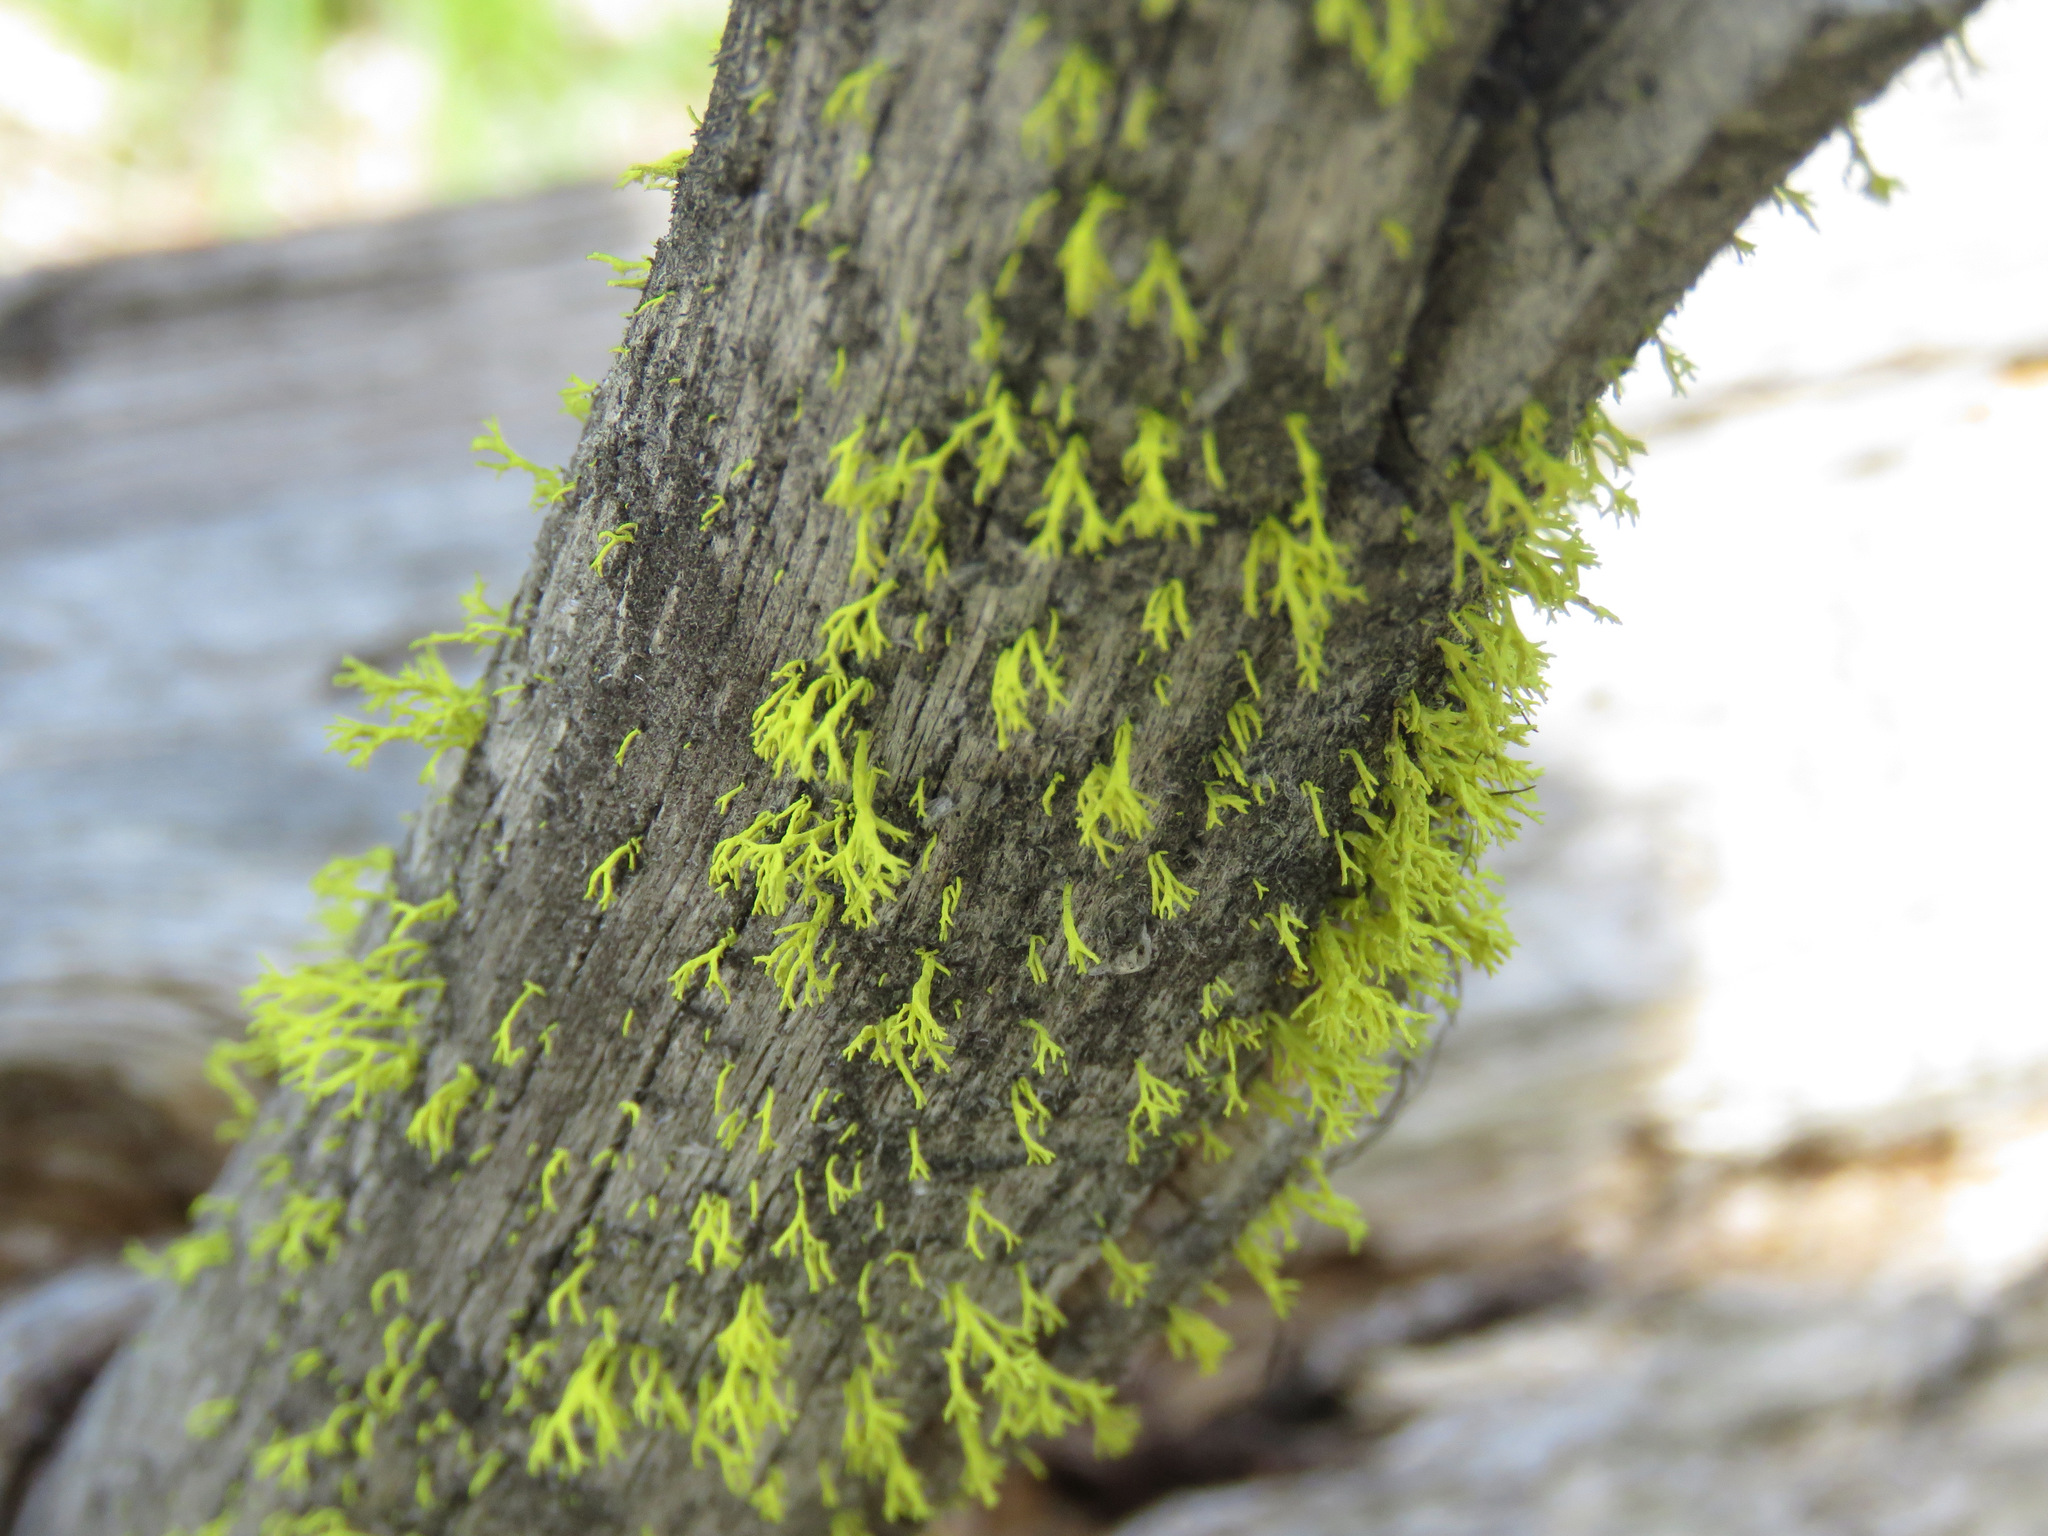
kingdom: Fungi
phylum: Ascomycota
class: Lecanoromycetes
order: Lecanorales
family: Parmeliaceae
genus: Letharia
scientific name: Letharia vulpina
